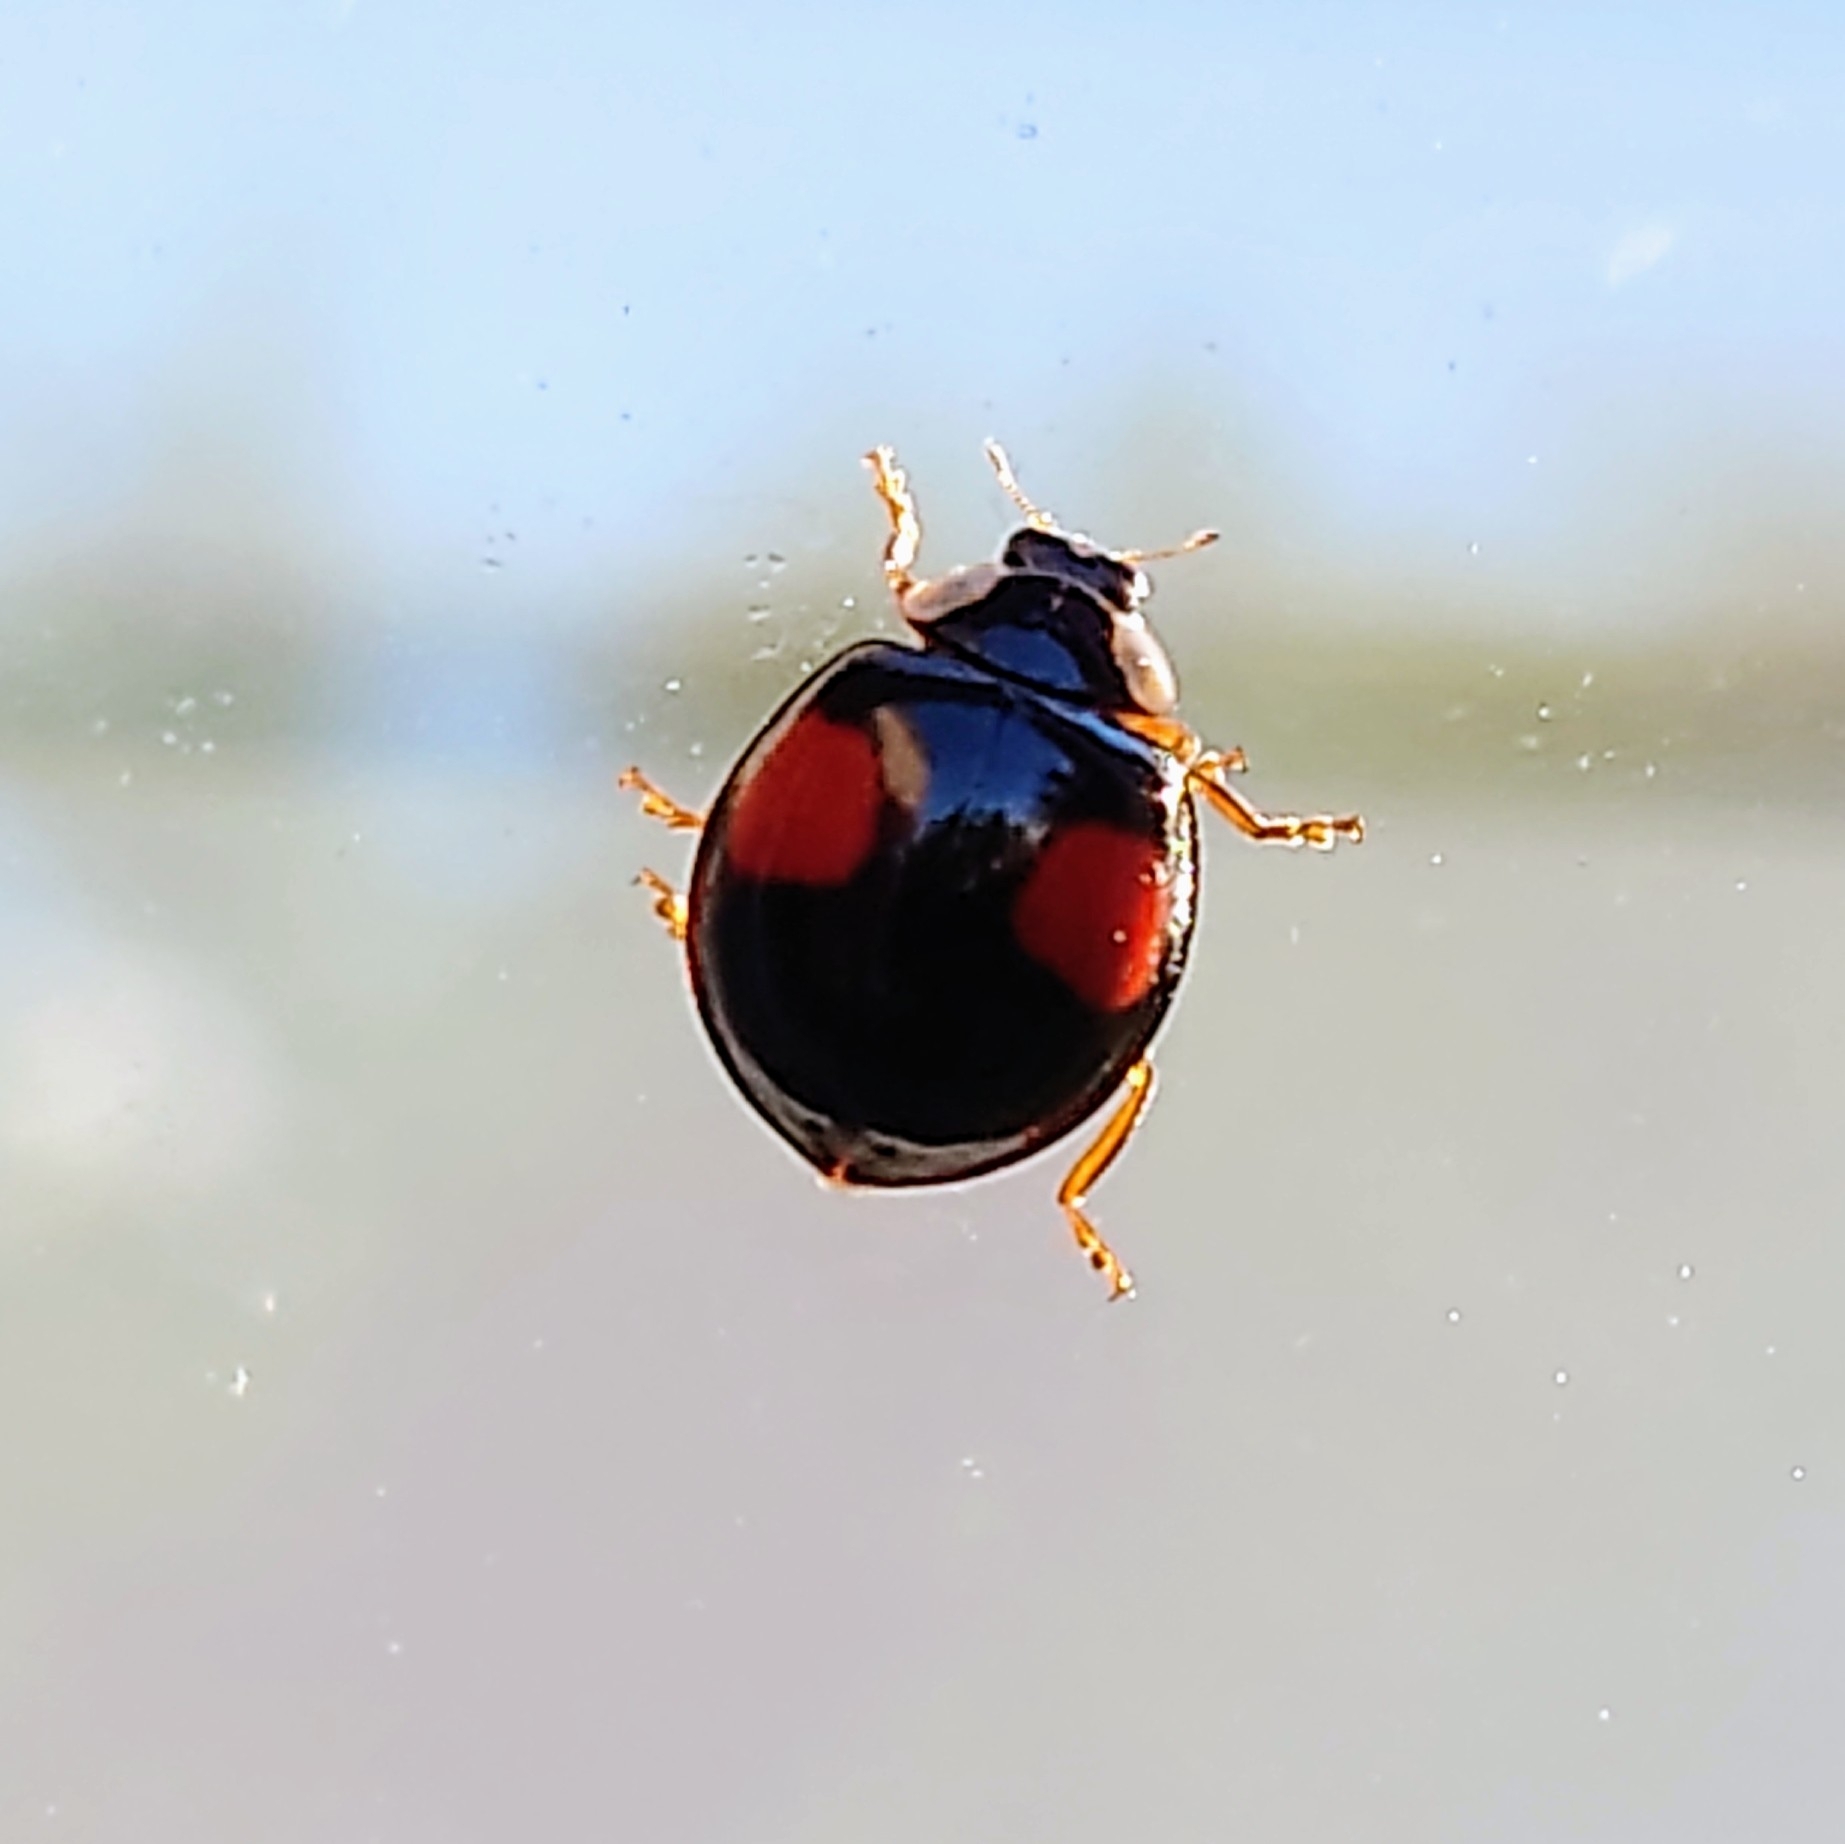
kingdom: Animalia
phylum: Arthropoda
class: Insecta
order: Coleoptera
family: Coccinellidae
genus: Harmonia
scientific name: Harmonia axyridis
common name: Harlequin ladybird
